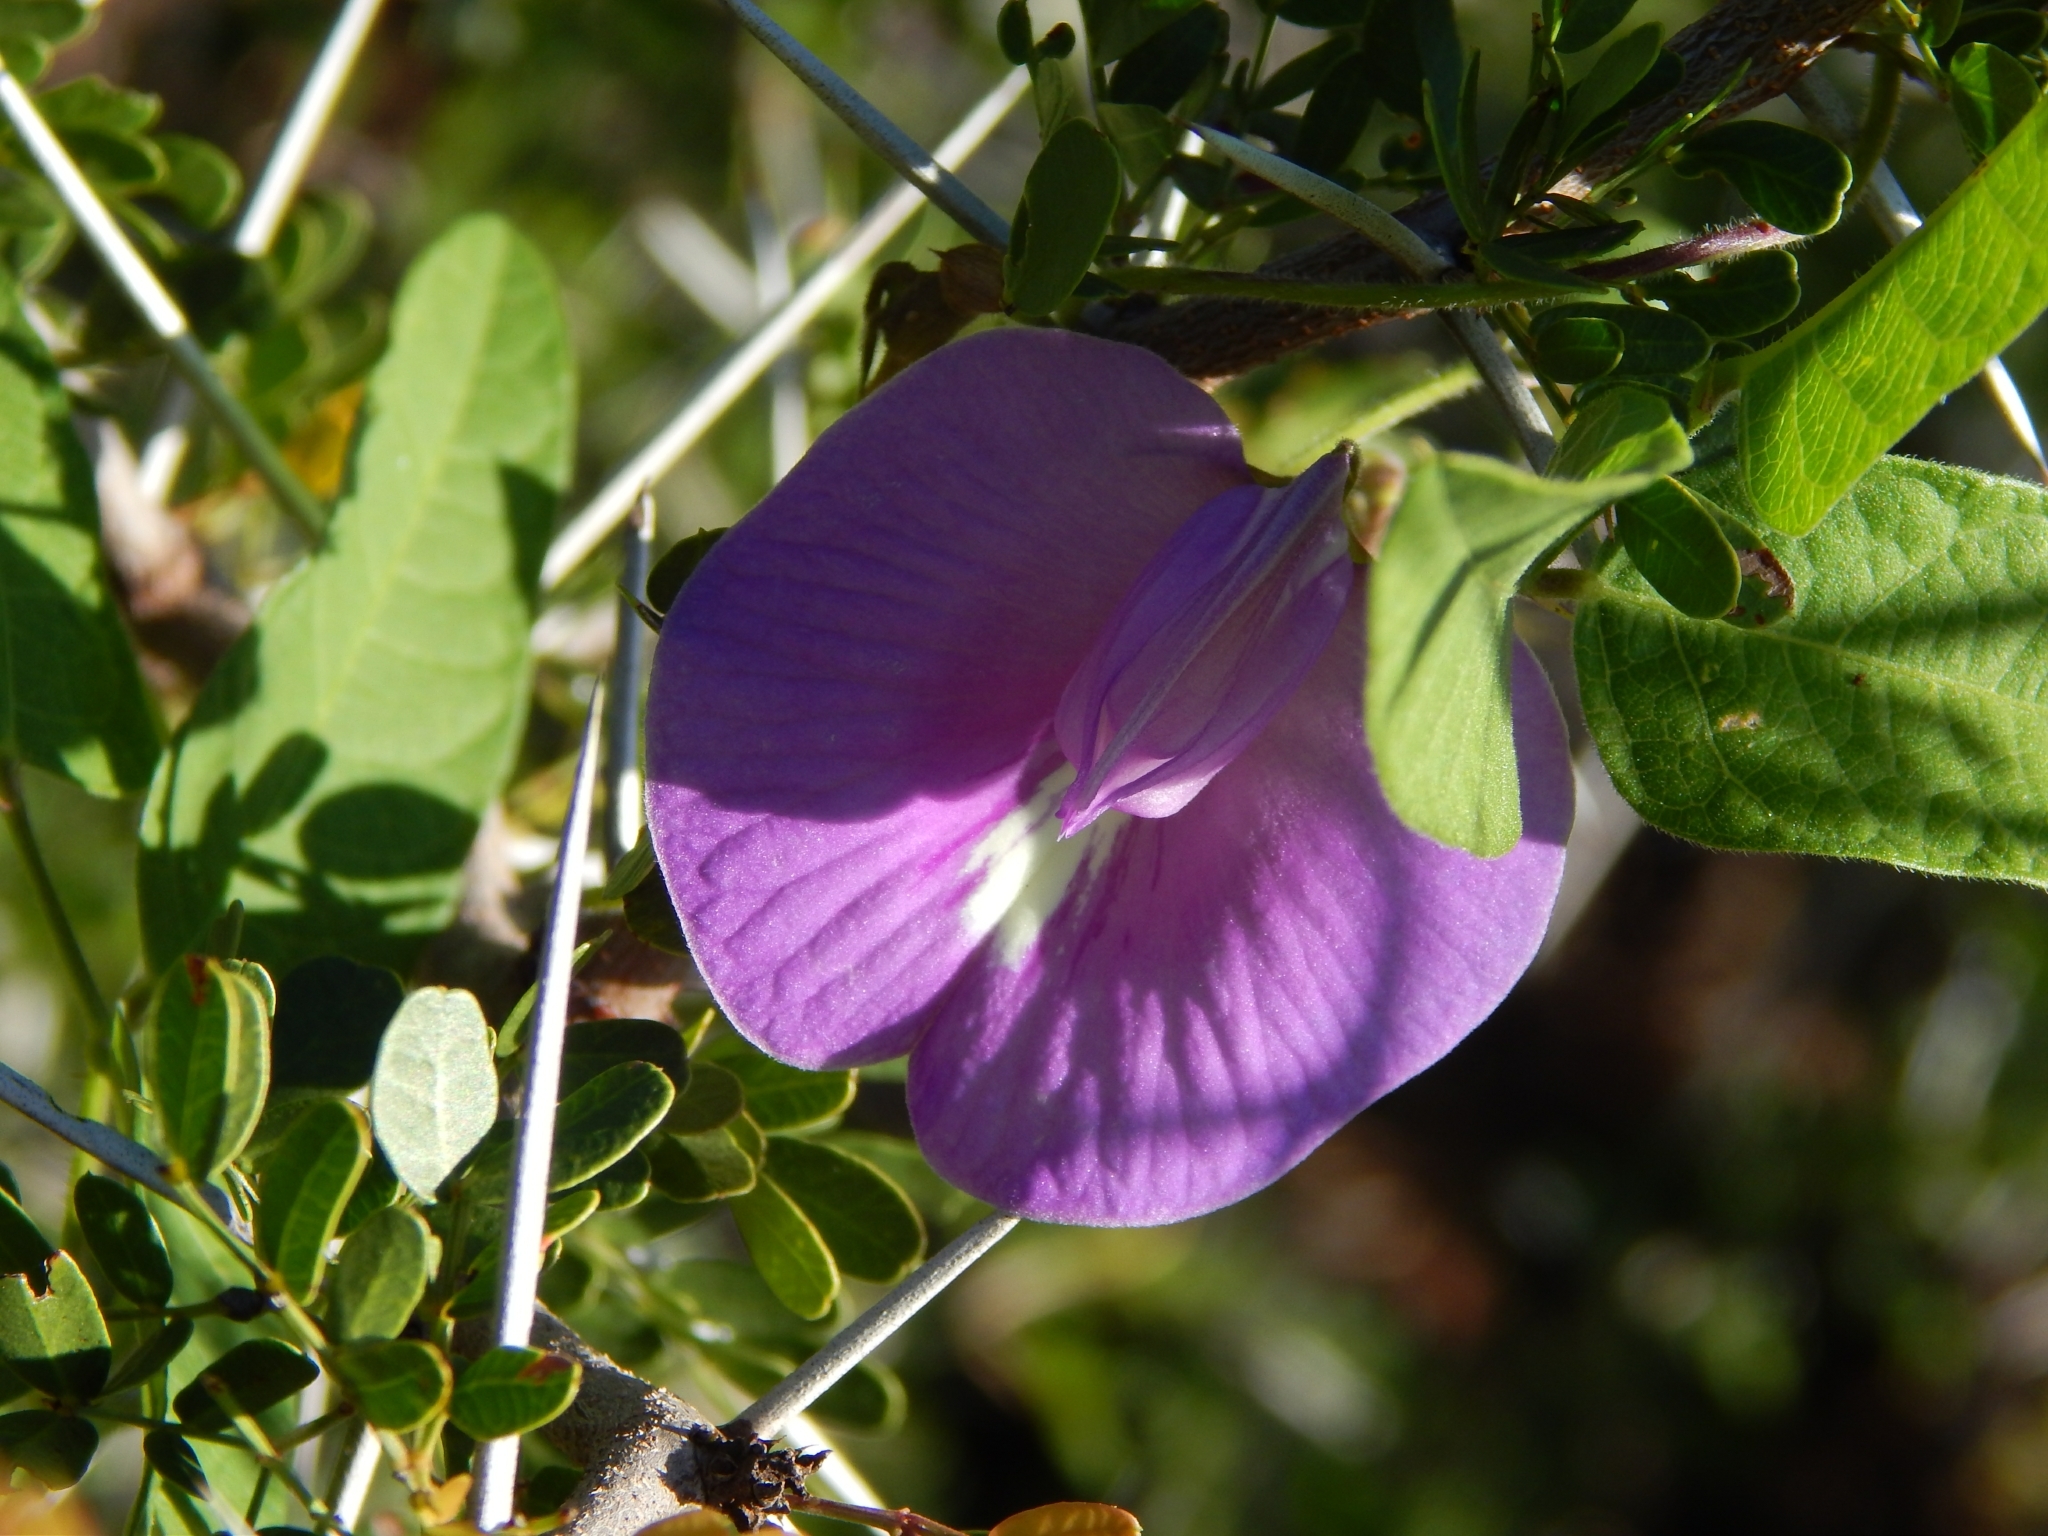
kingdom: Plantae
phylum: Tracheophyta
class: Magnoliopsida
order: Fabales
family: Fabaceae
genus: Centrosema
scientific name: Centrosema virginianum
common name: Butterfly-pea
